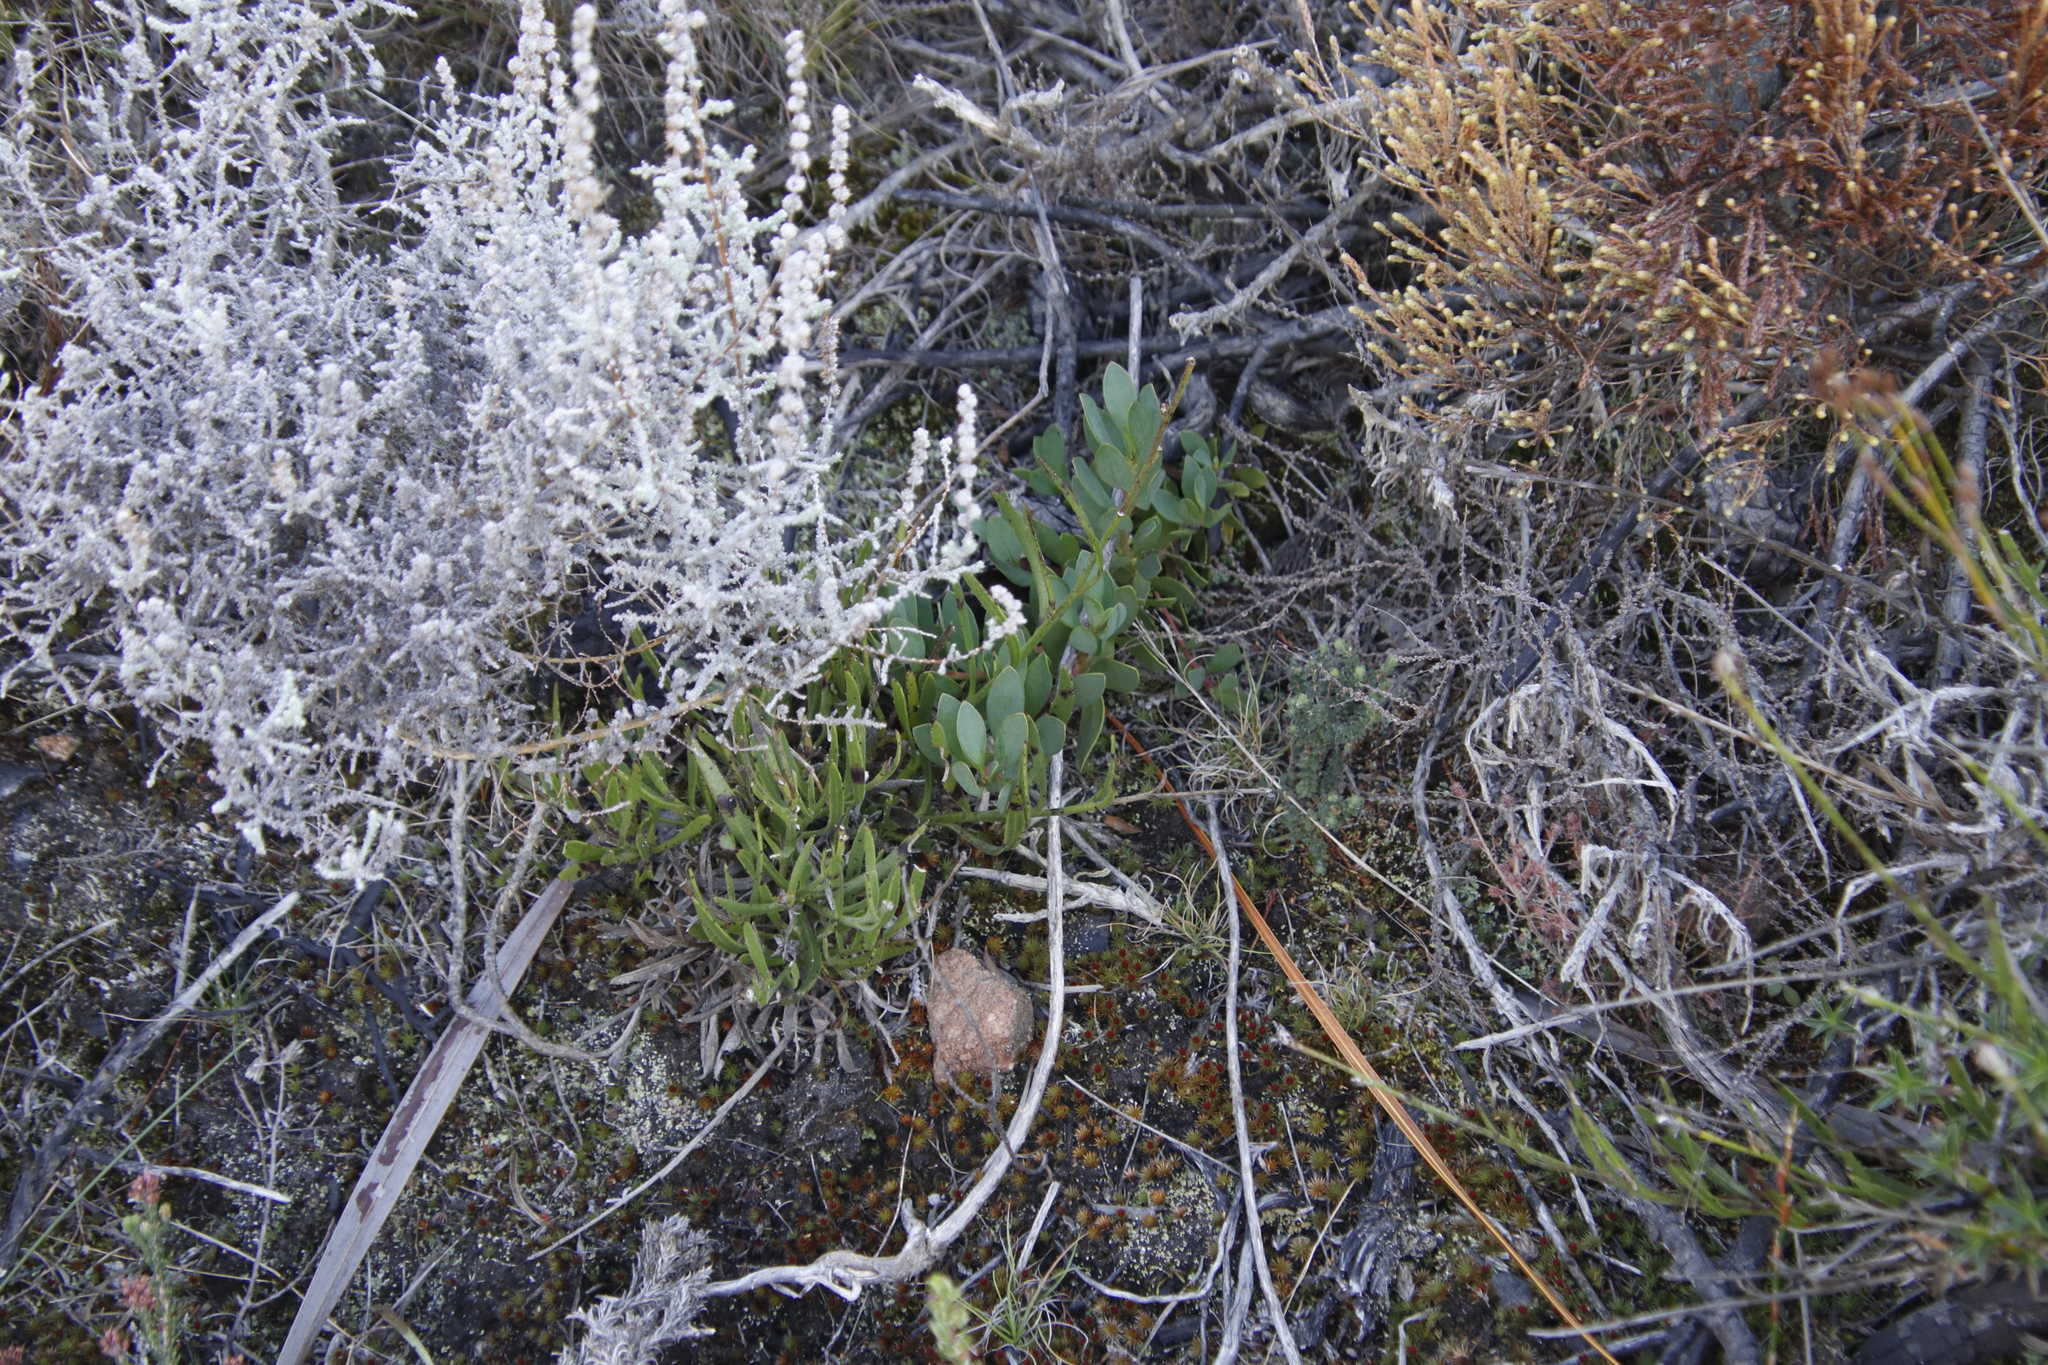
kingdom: Plantae
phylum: Tracheophyta
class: Magnoliopsida
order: Proteales
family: Proteaceae
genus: Protea
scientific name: Protea venusta
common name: Cascade sugarbush
